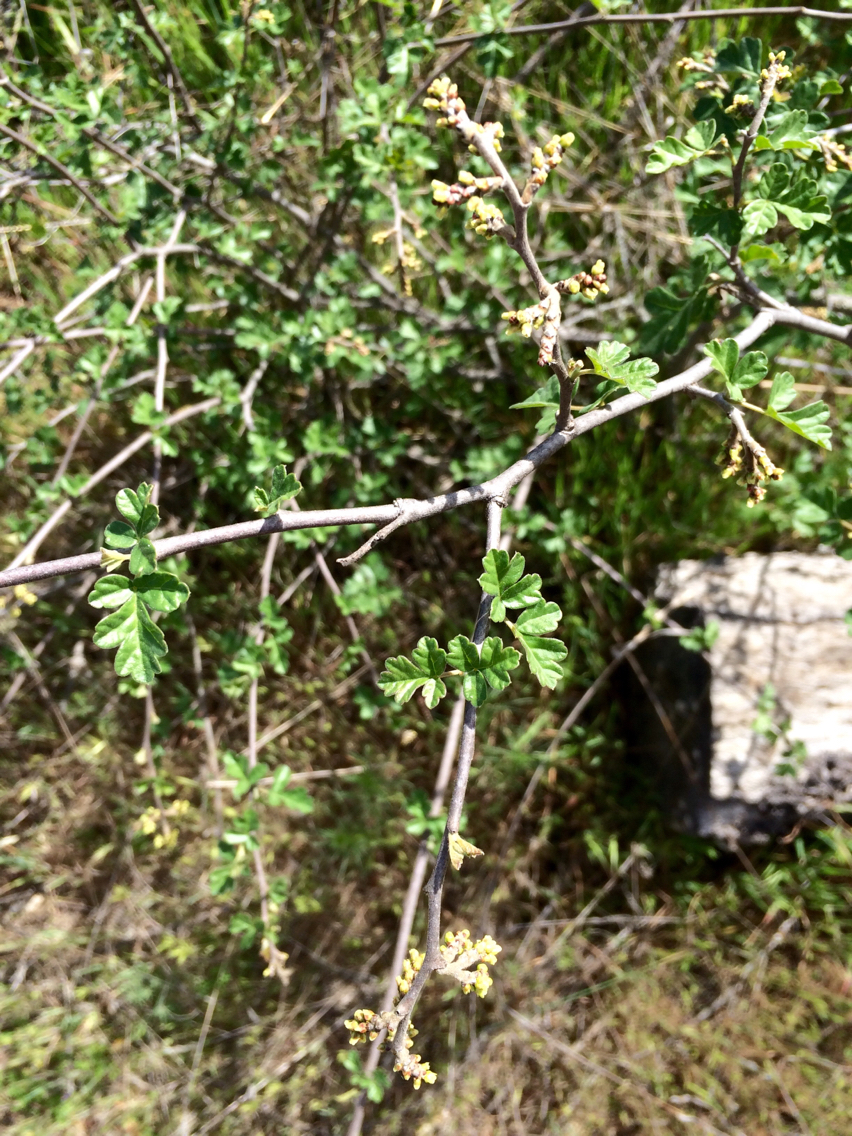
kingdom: Plantae
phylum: Tracheophyta
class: Magnoliopsida
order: Sapindales
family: Anacardiaceae
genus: Rhus
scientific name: Rhus aromatica
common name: Aromatic sumac
